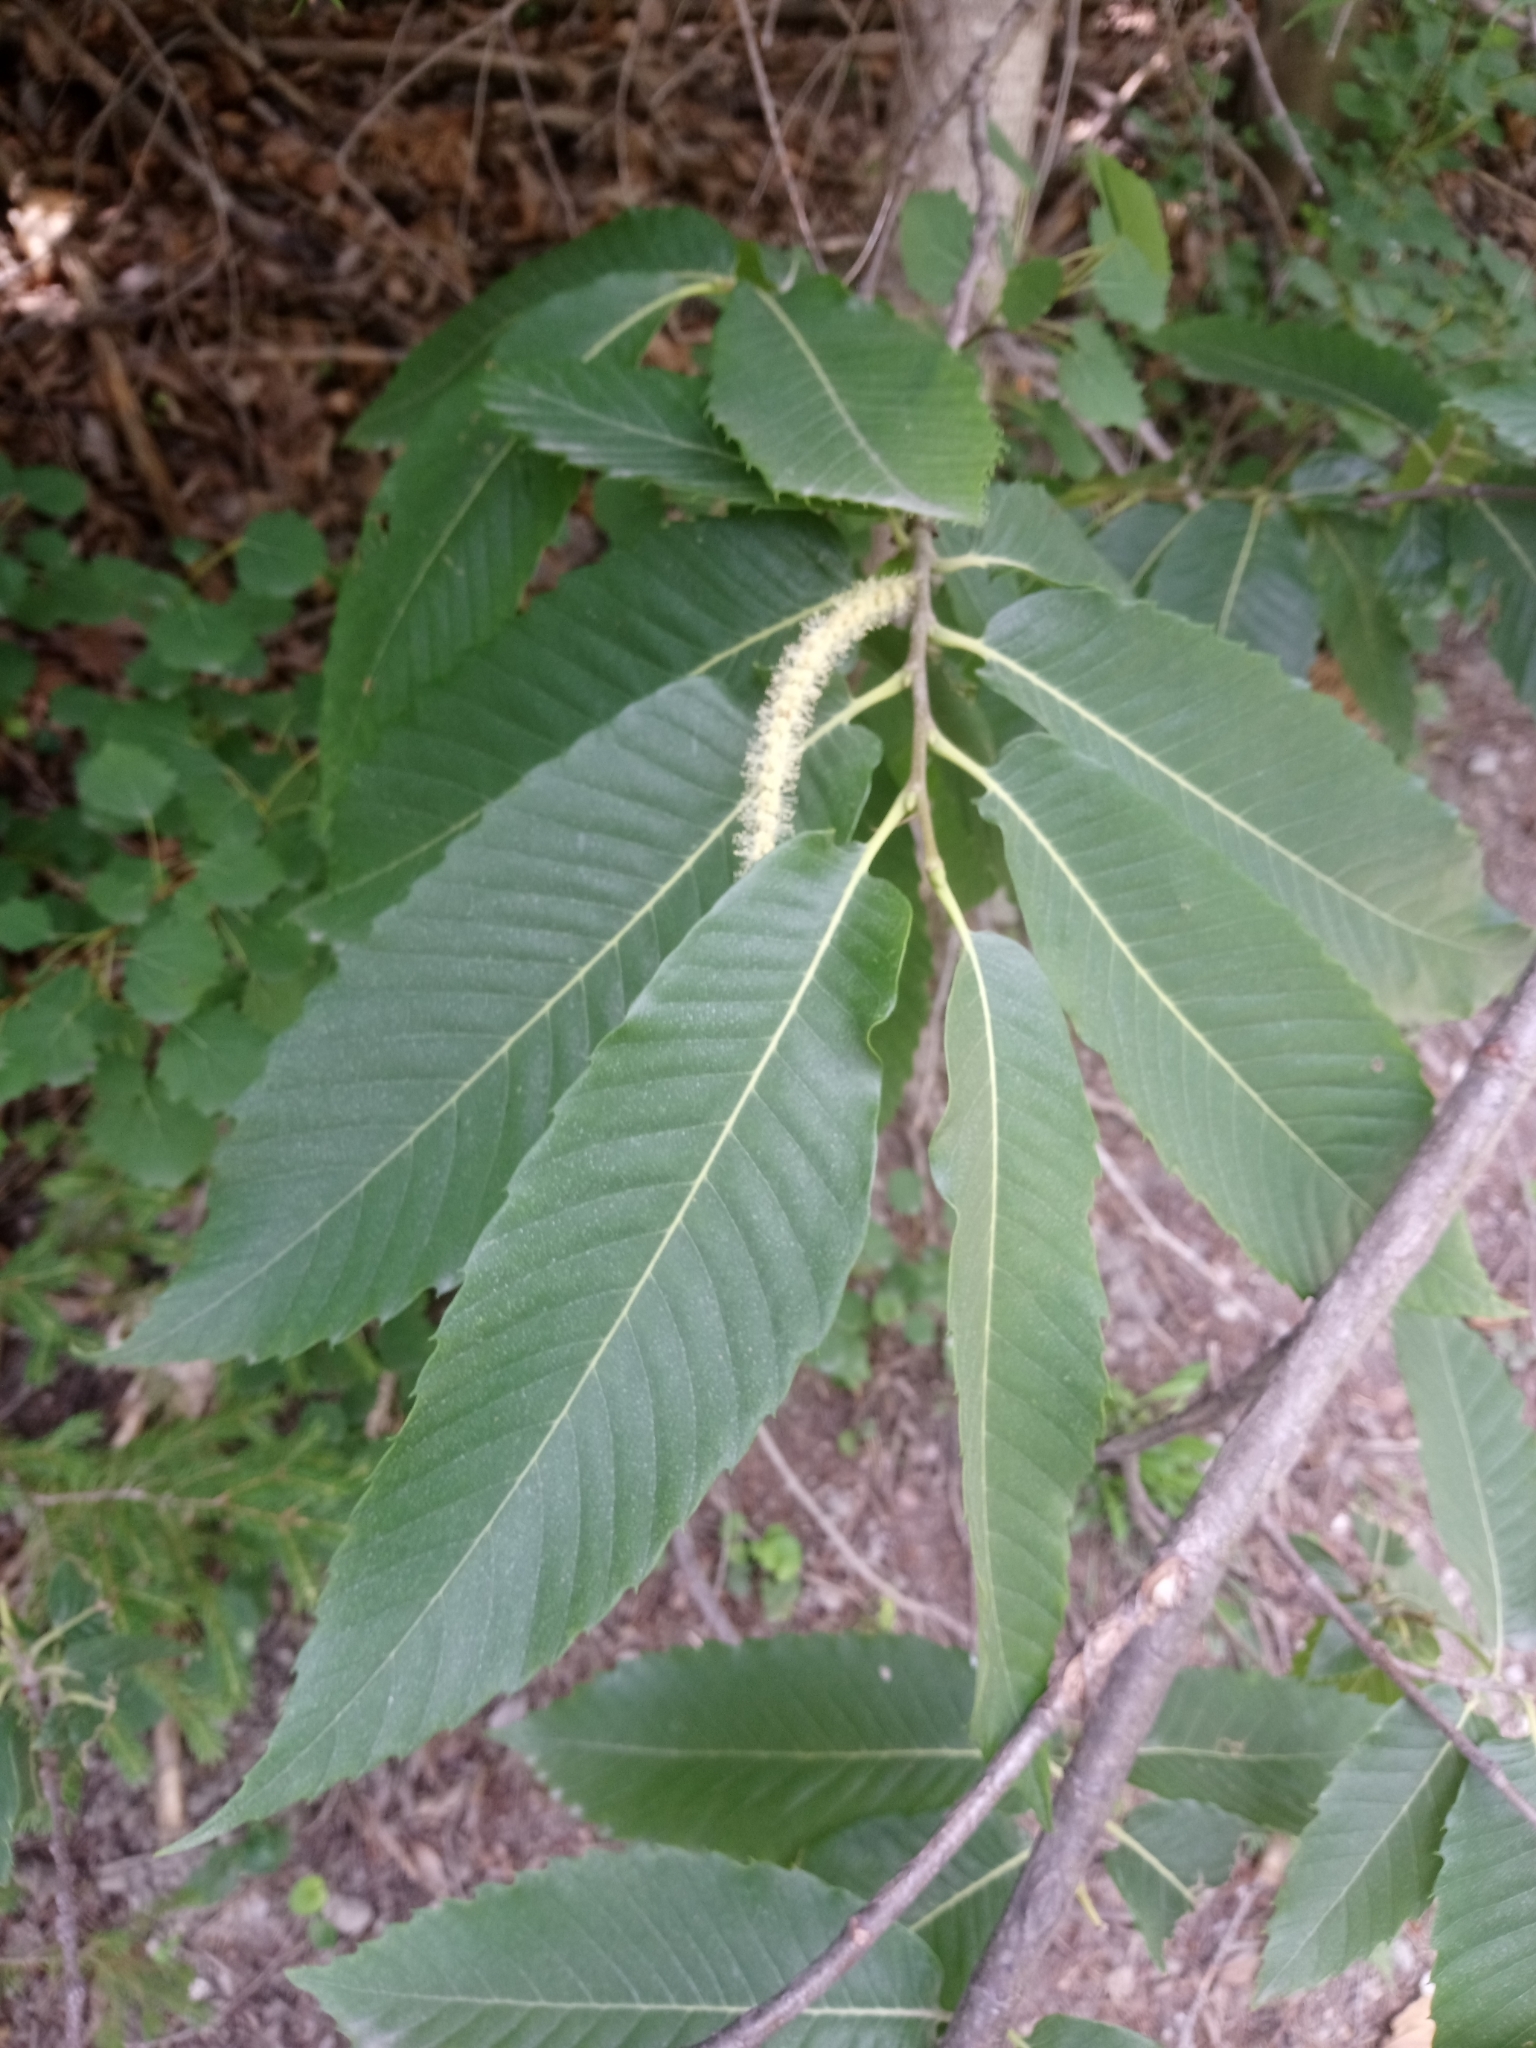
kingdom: Plantae
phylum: Tracheophyta
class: Magnoliopsida
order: Fagales
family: Fagaceae
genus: Castanea
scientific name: Castanea sativa
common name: Sweet chestnut
